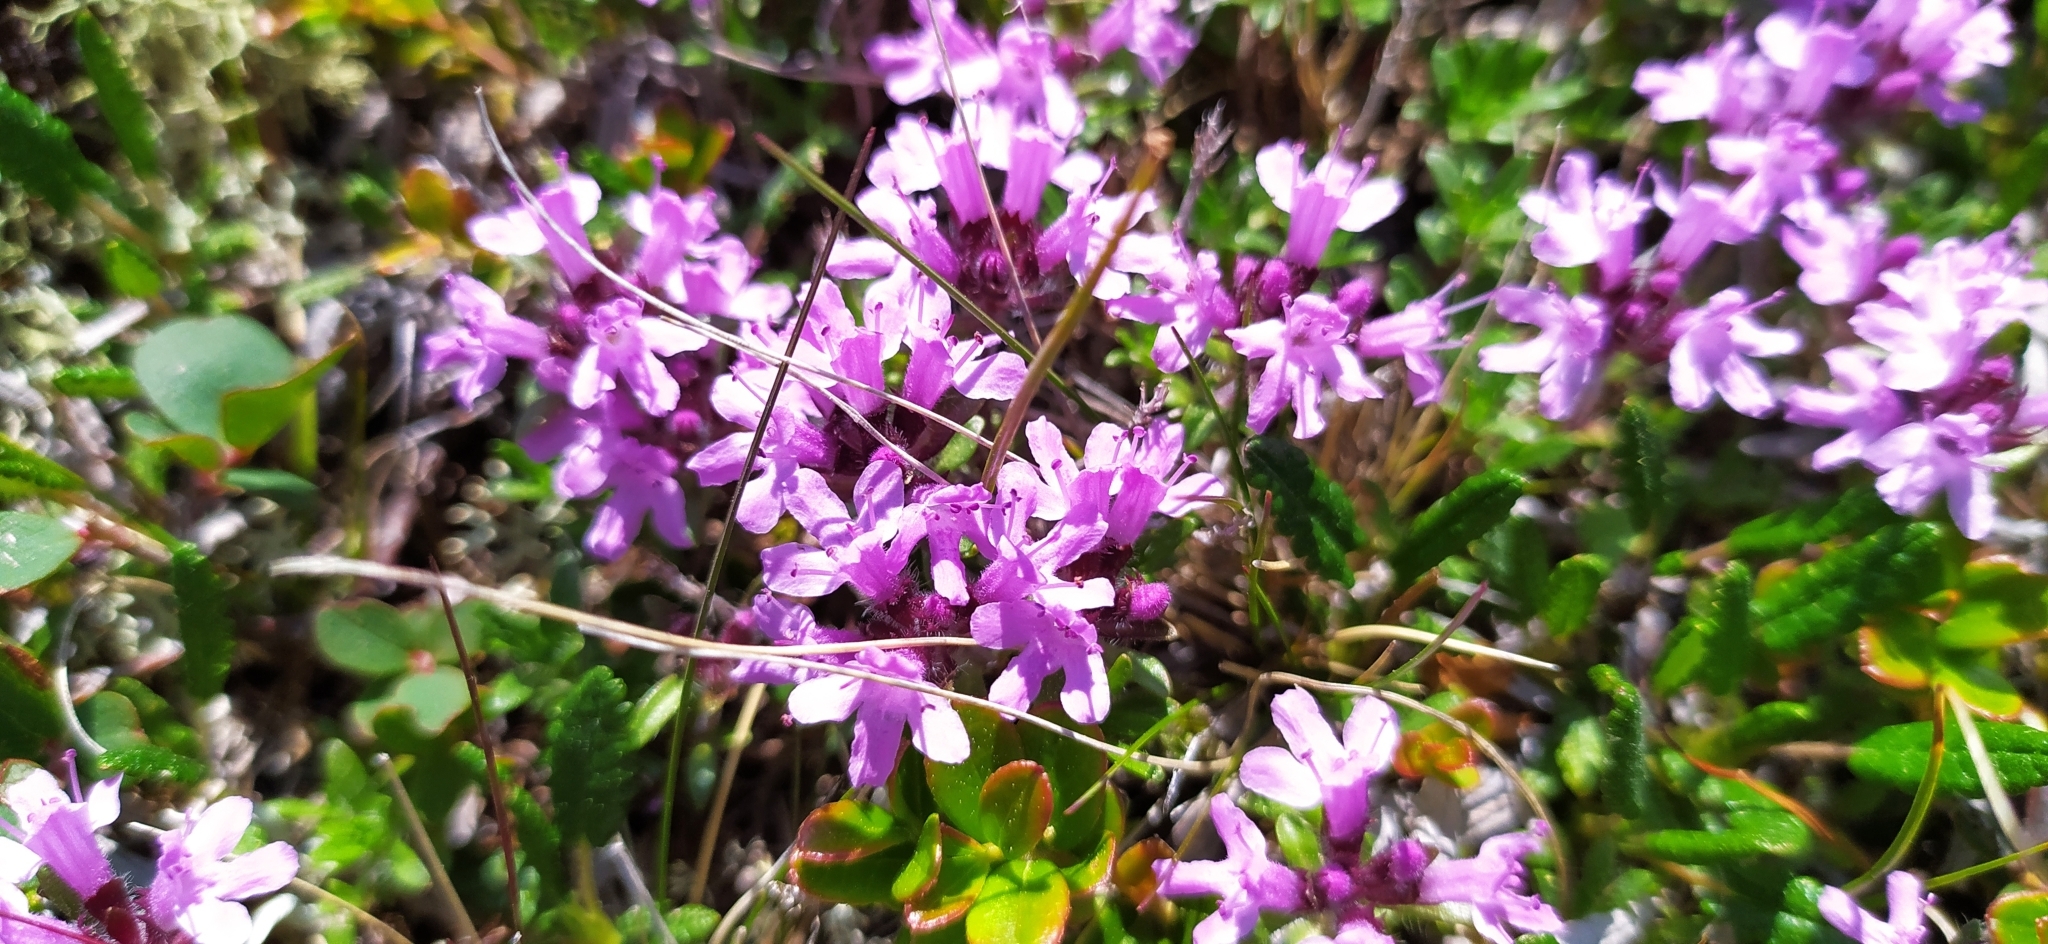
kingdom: Plantae
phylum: Tracheophyta
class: Magnoliopsida
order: Lamiales
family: Lamiaceae
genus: Thymus
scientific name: Thymus glabricaulis
